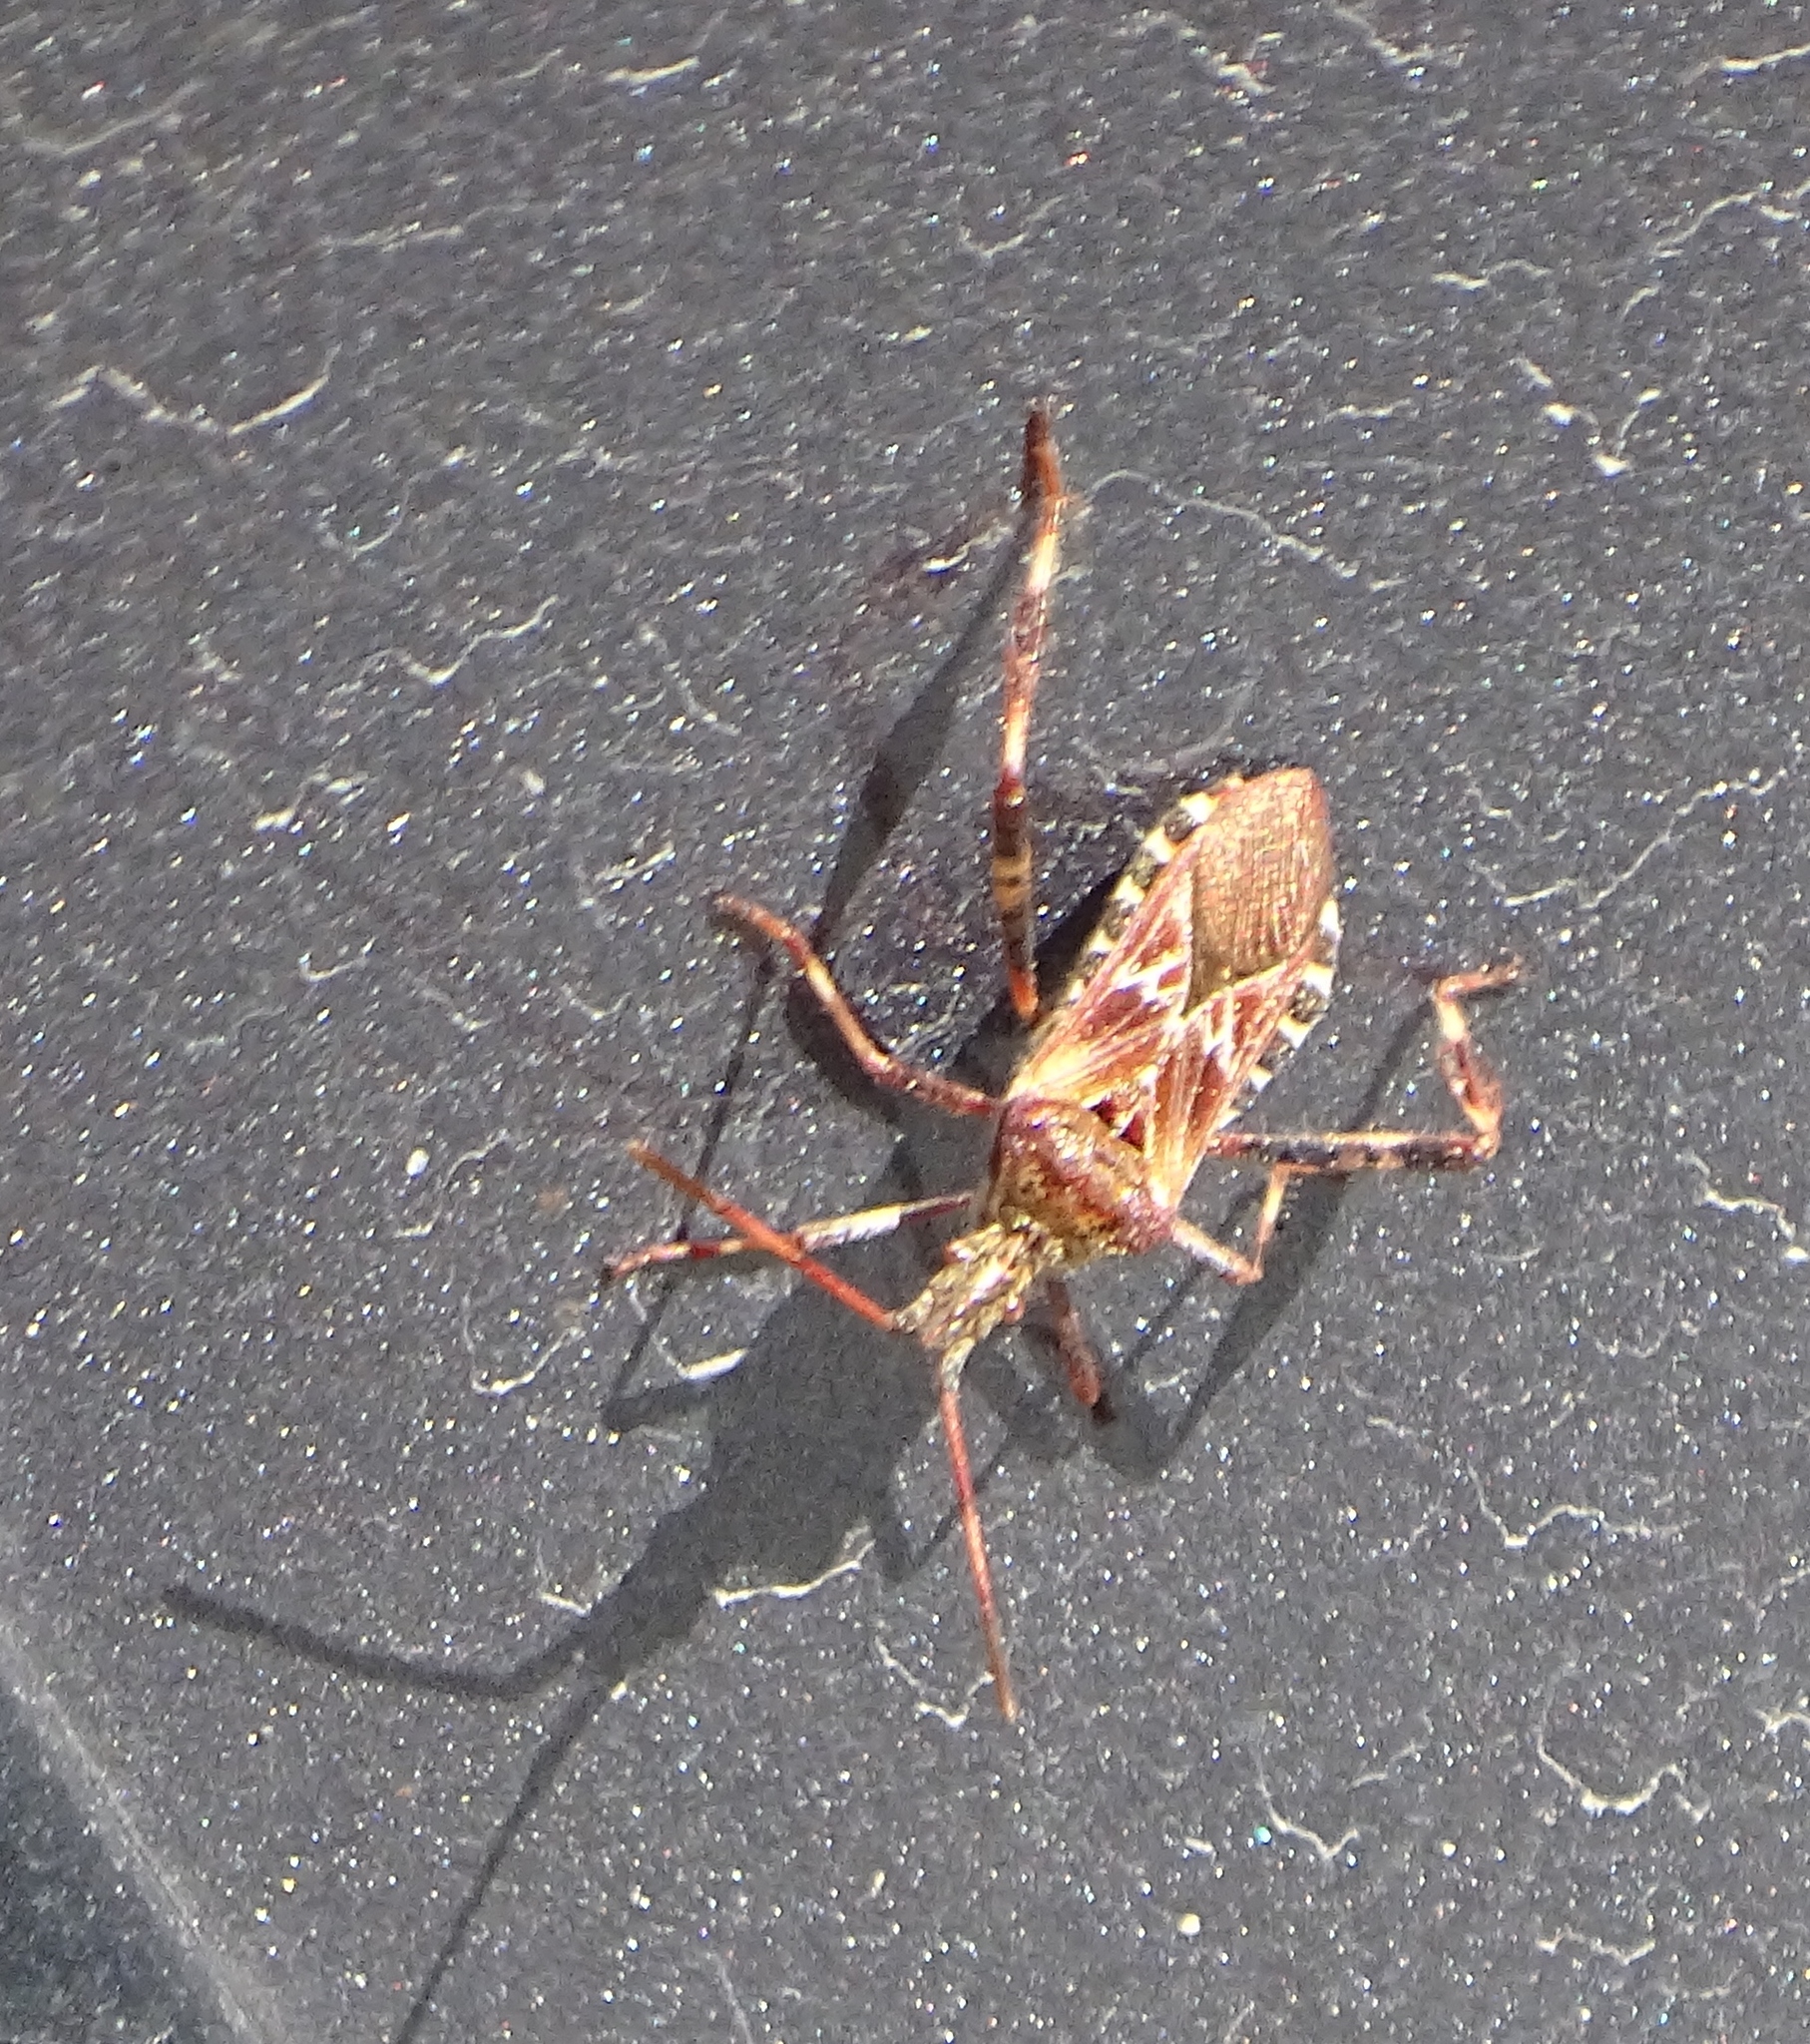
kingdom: Animalia
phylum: Arthropoda
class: Insecta
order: Hemiptera
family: Coreidae
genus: Leptoglossus
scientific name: Leptoglossus occidentalis
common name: Western conifer-seed bug
